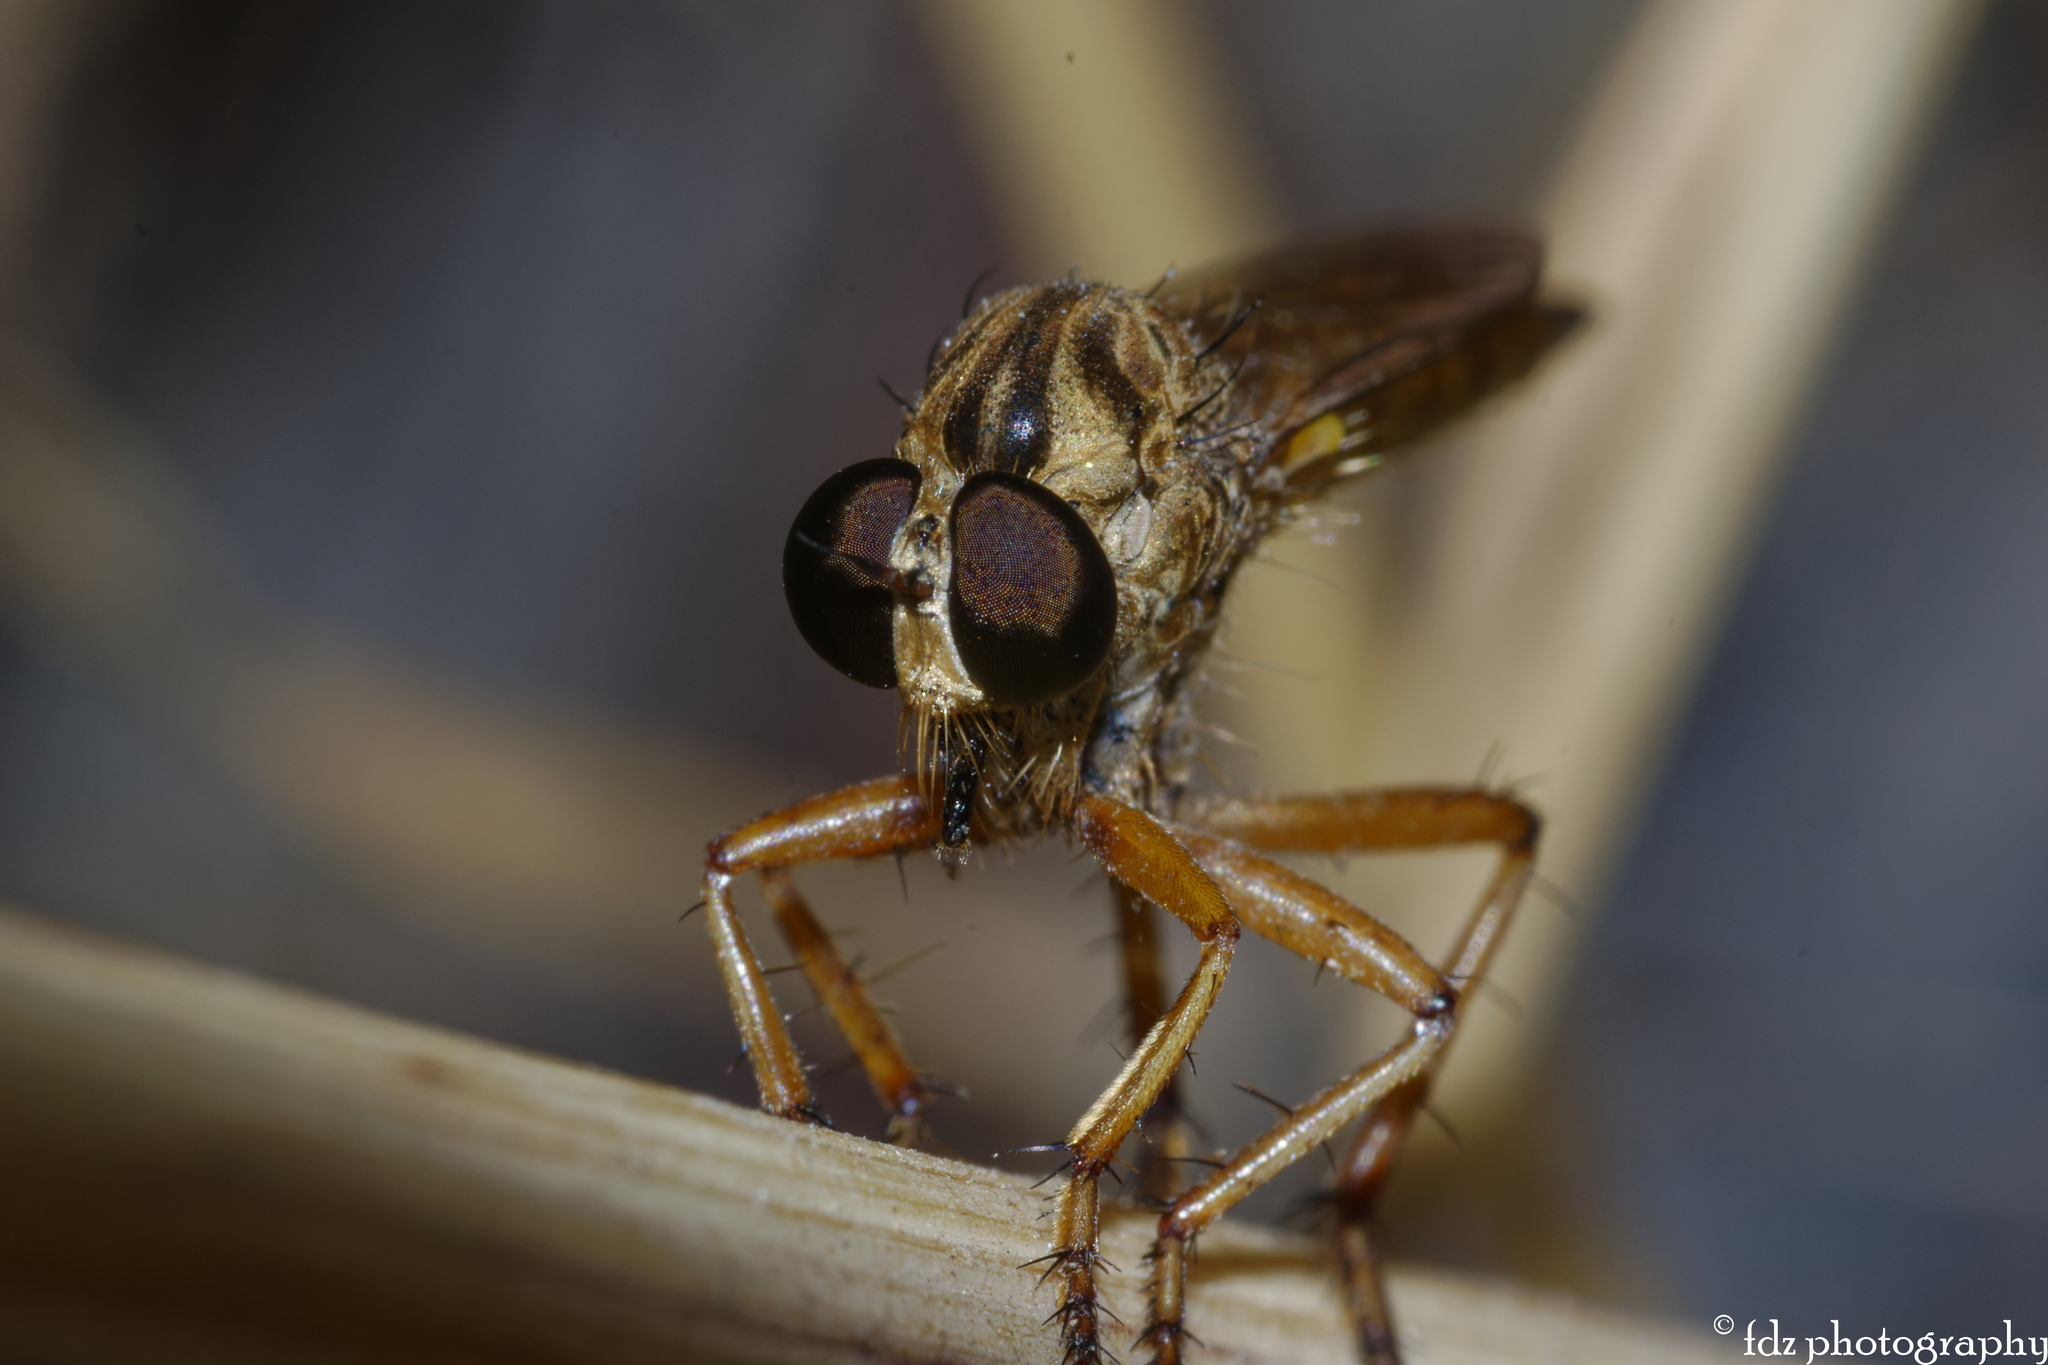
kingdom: Animalia
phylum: Arthropoda
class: Insecta
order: Diptera
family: Asilidae
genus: Neomochtherus
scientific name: Neomochtherus ochriventris
